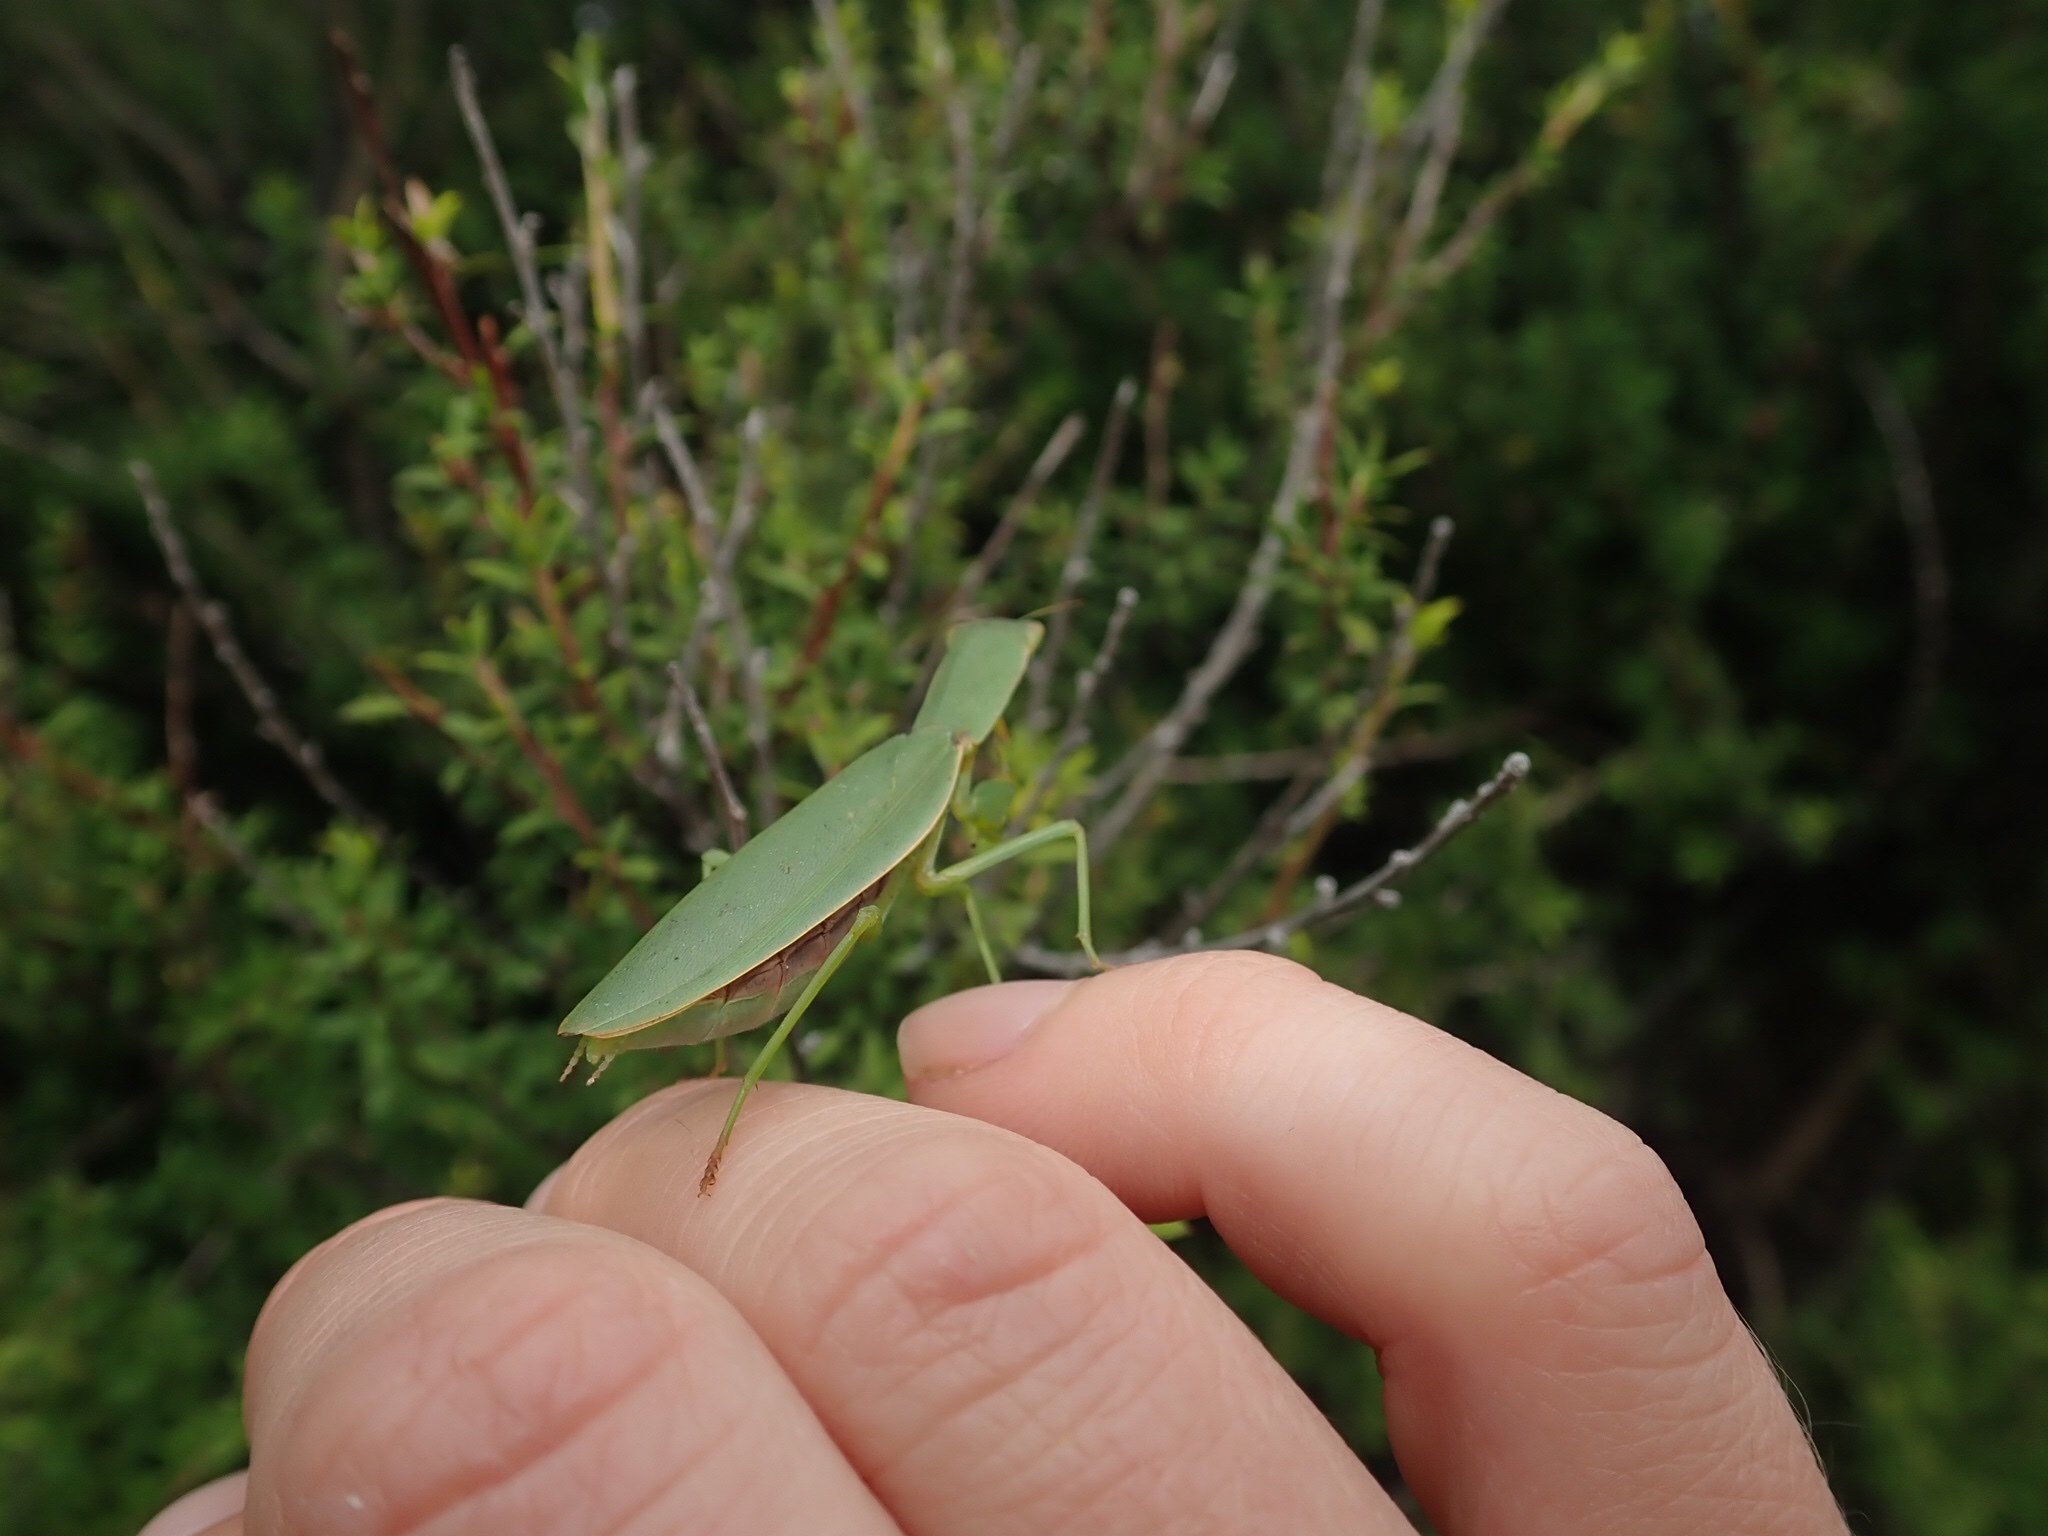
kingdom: Animalia
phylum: Arthropoda
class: Insecta
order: Mantodea
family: Mantidae
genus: Orthodera
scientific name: Orthodera novaezealandiae
